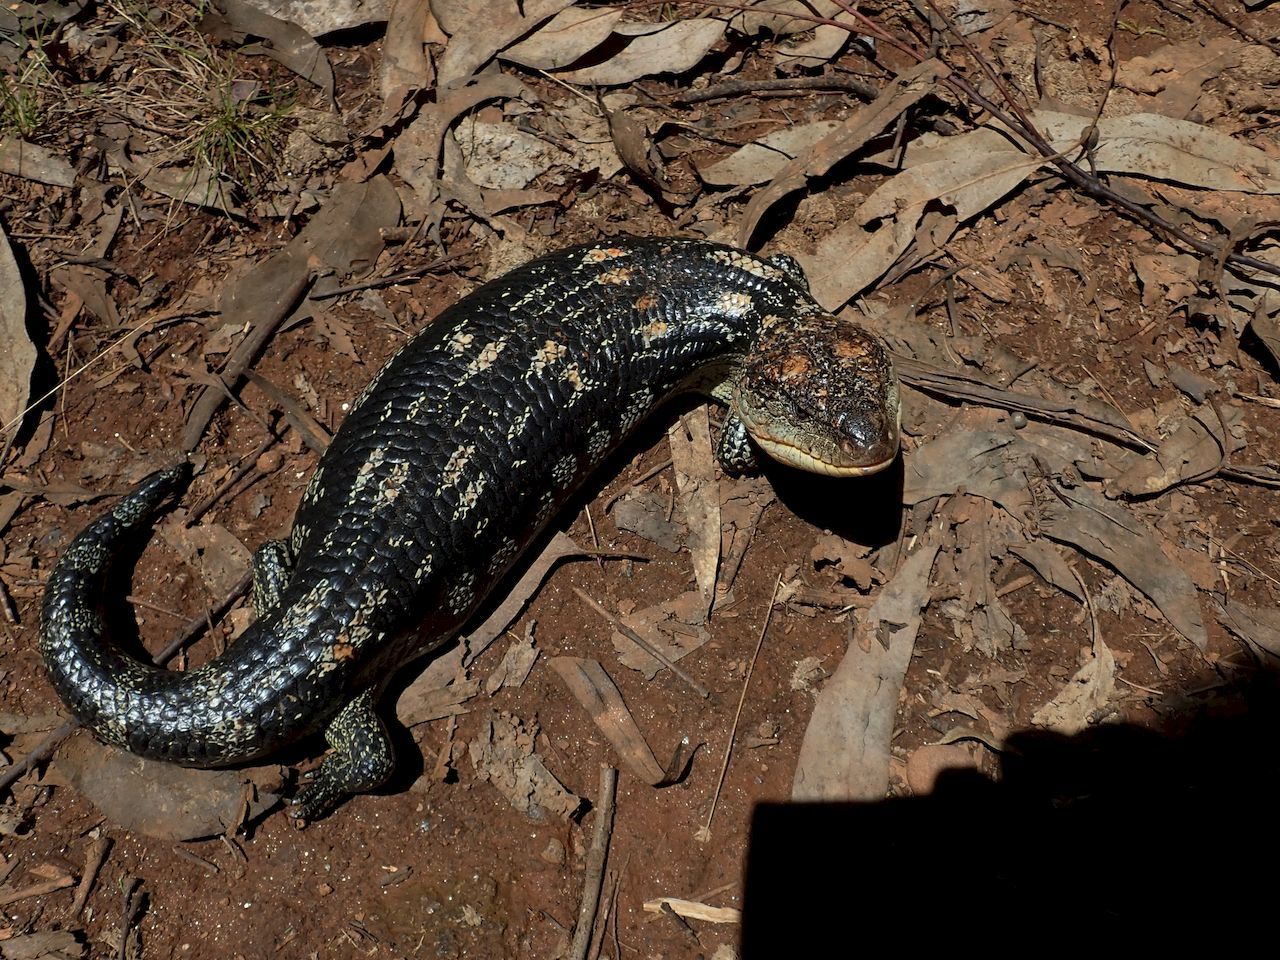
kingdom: Animalia
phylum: Chordata
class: Squamata
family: Scincidae
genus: Tiliqua
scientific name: Tiliqua nigrolutea
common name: Blotched blue-tongued lizard
